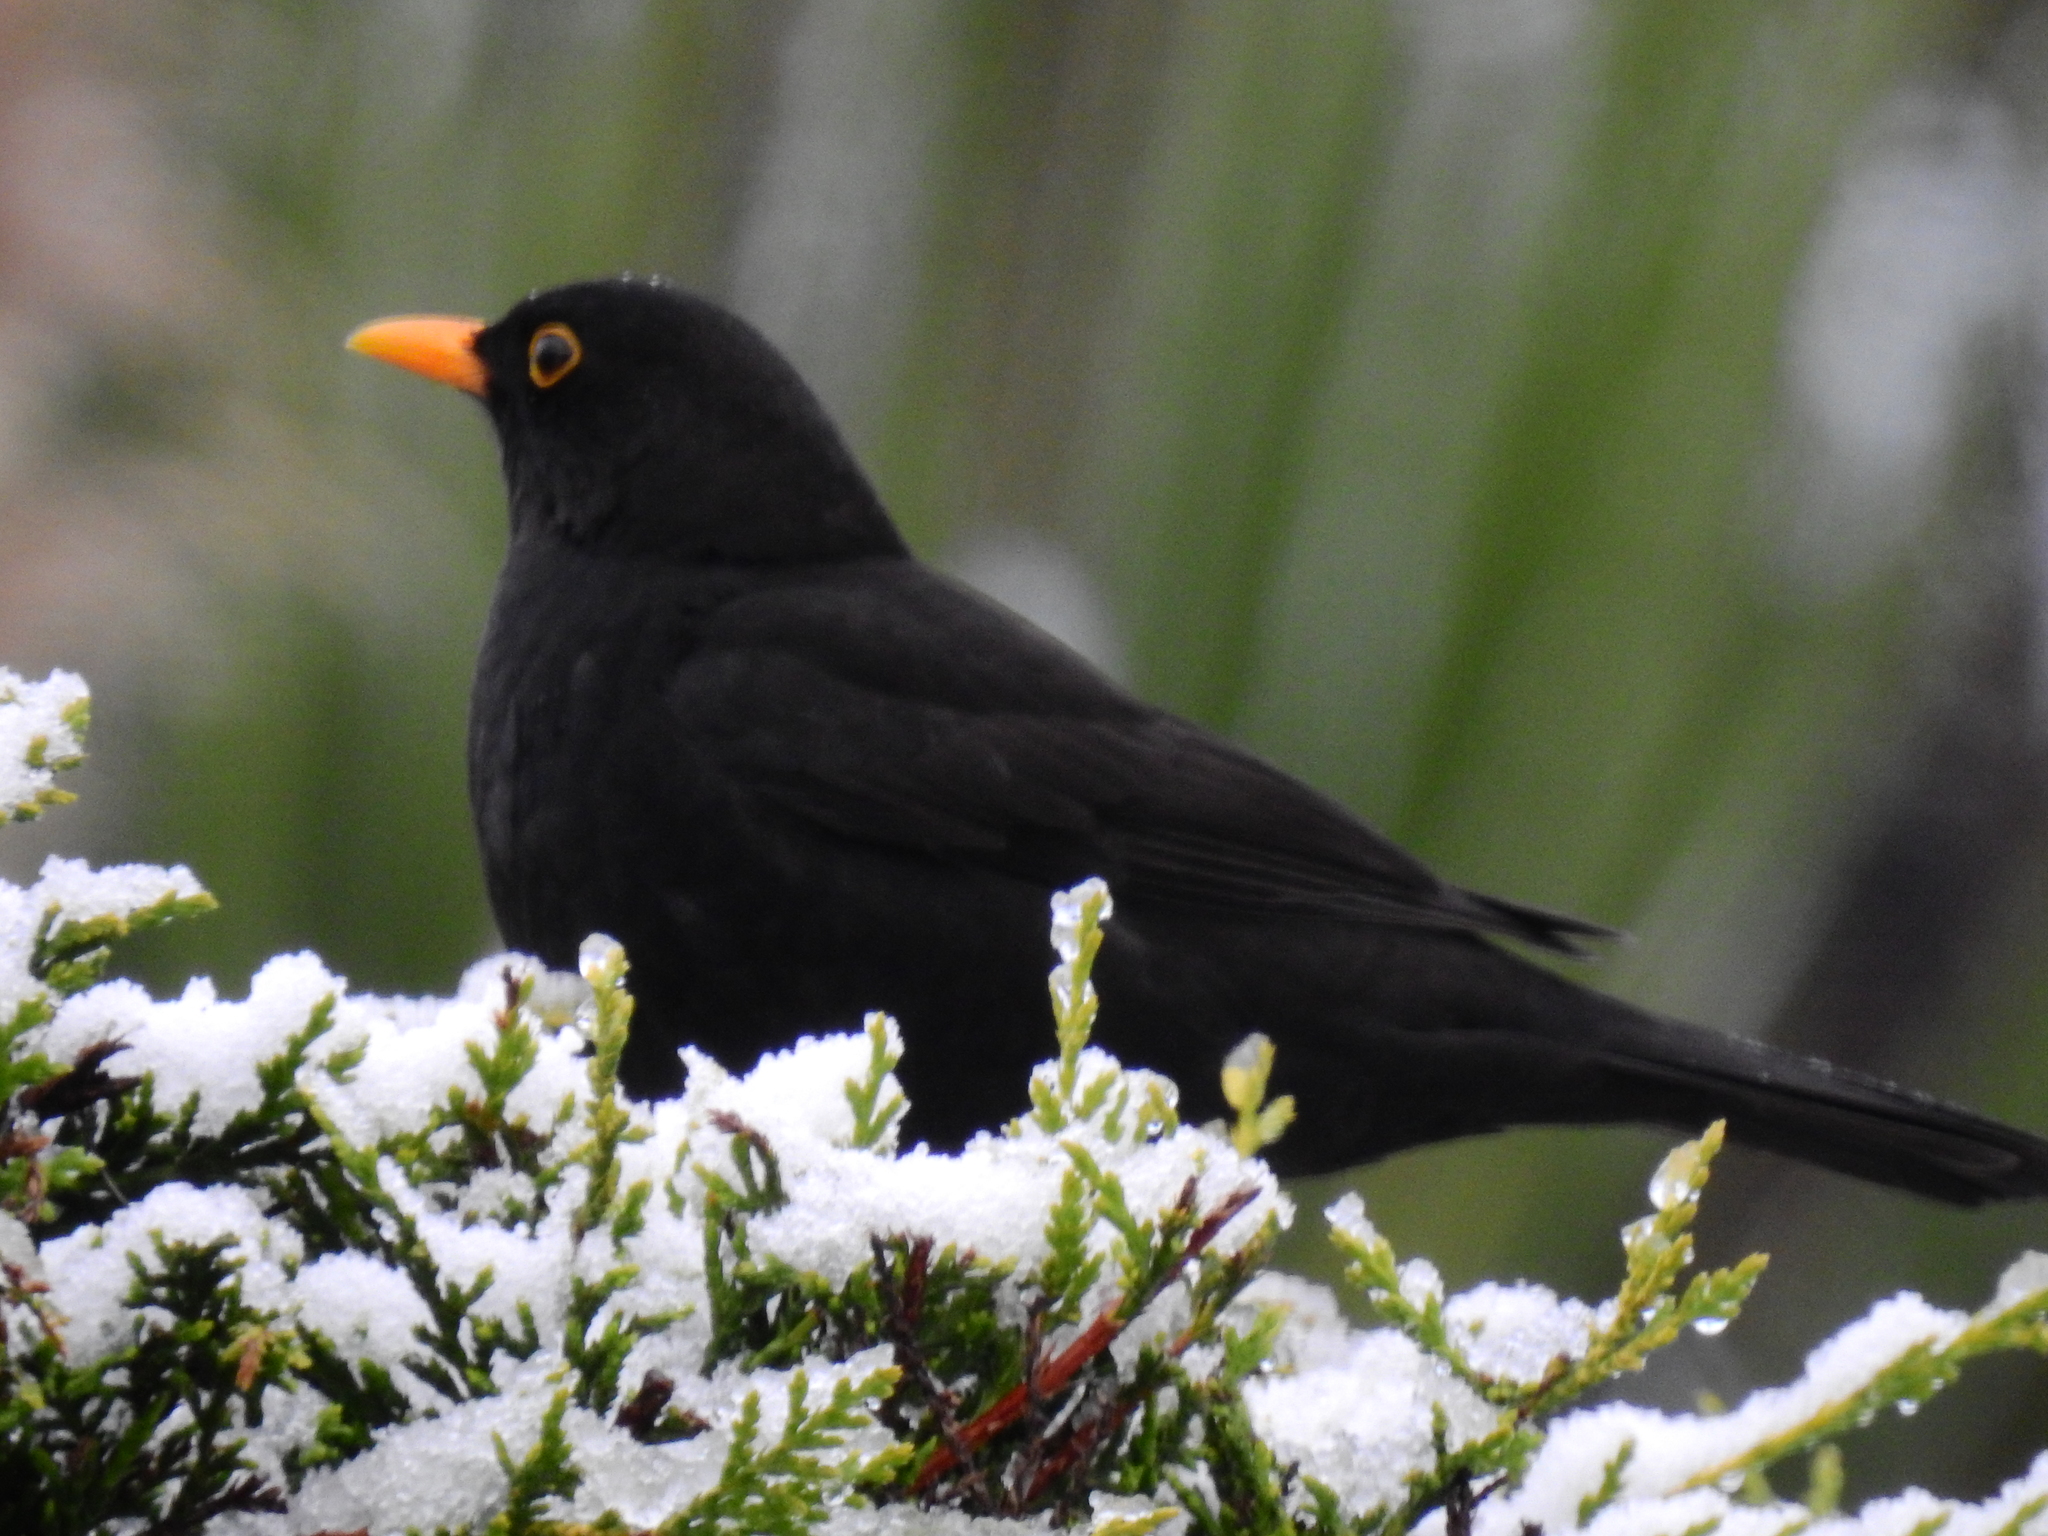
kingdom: Animalia
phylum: Chordata
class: Aves
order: Passeriformes
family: Turdidae
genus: Turdus
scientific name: Turdus merula
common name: Common blackbird
